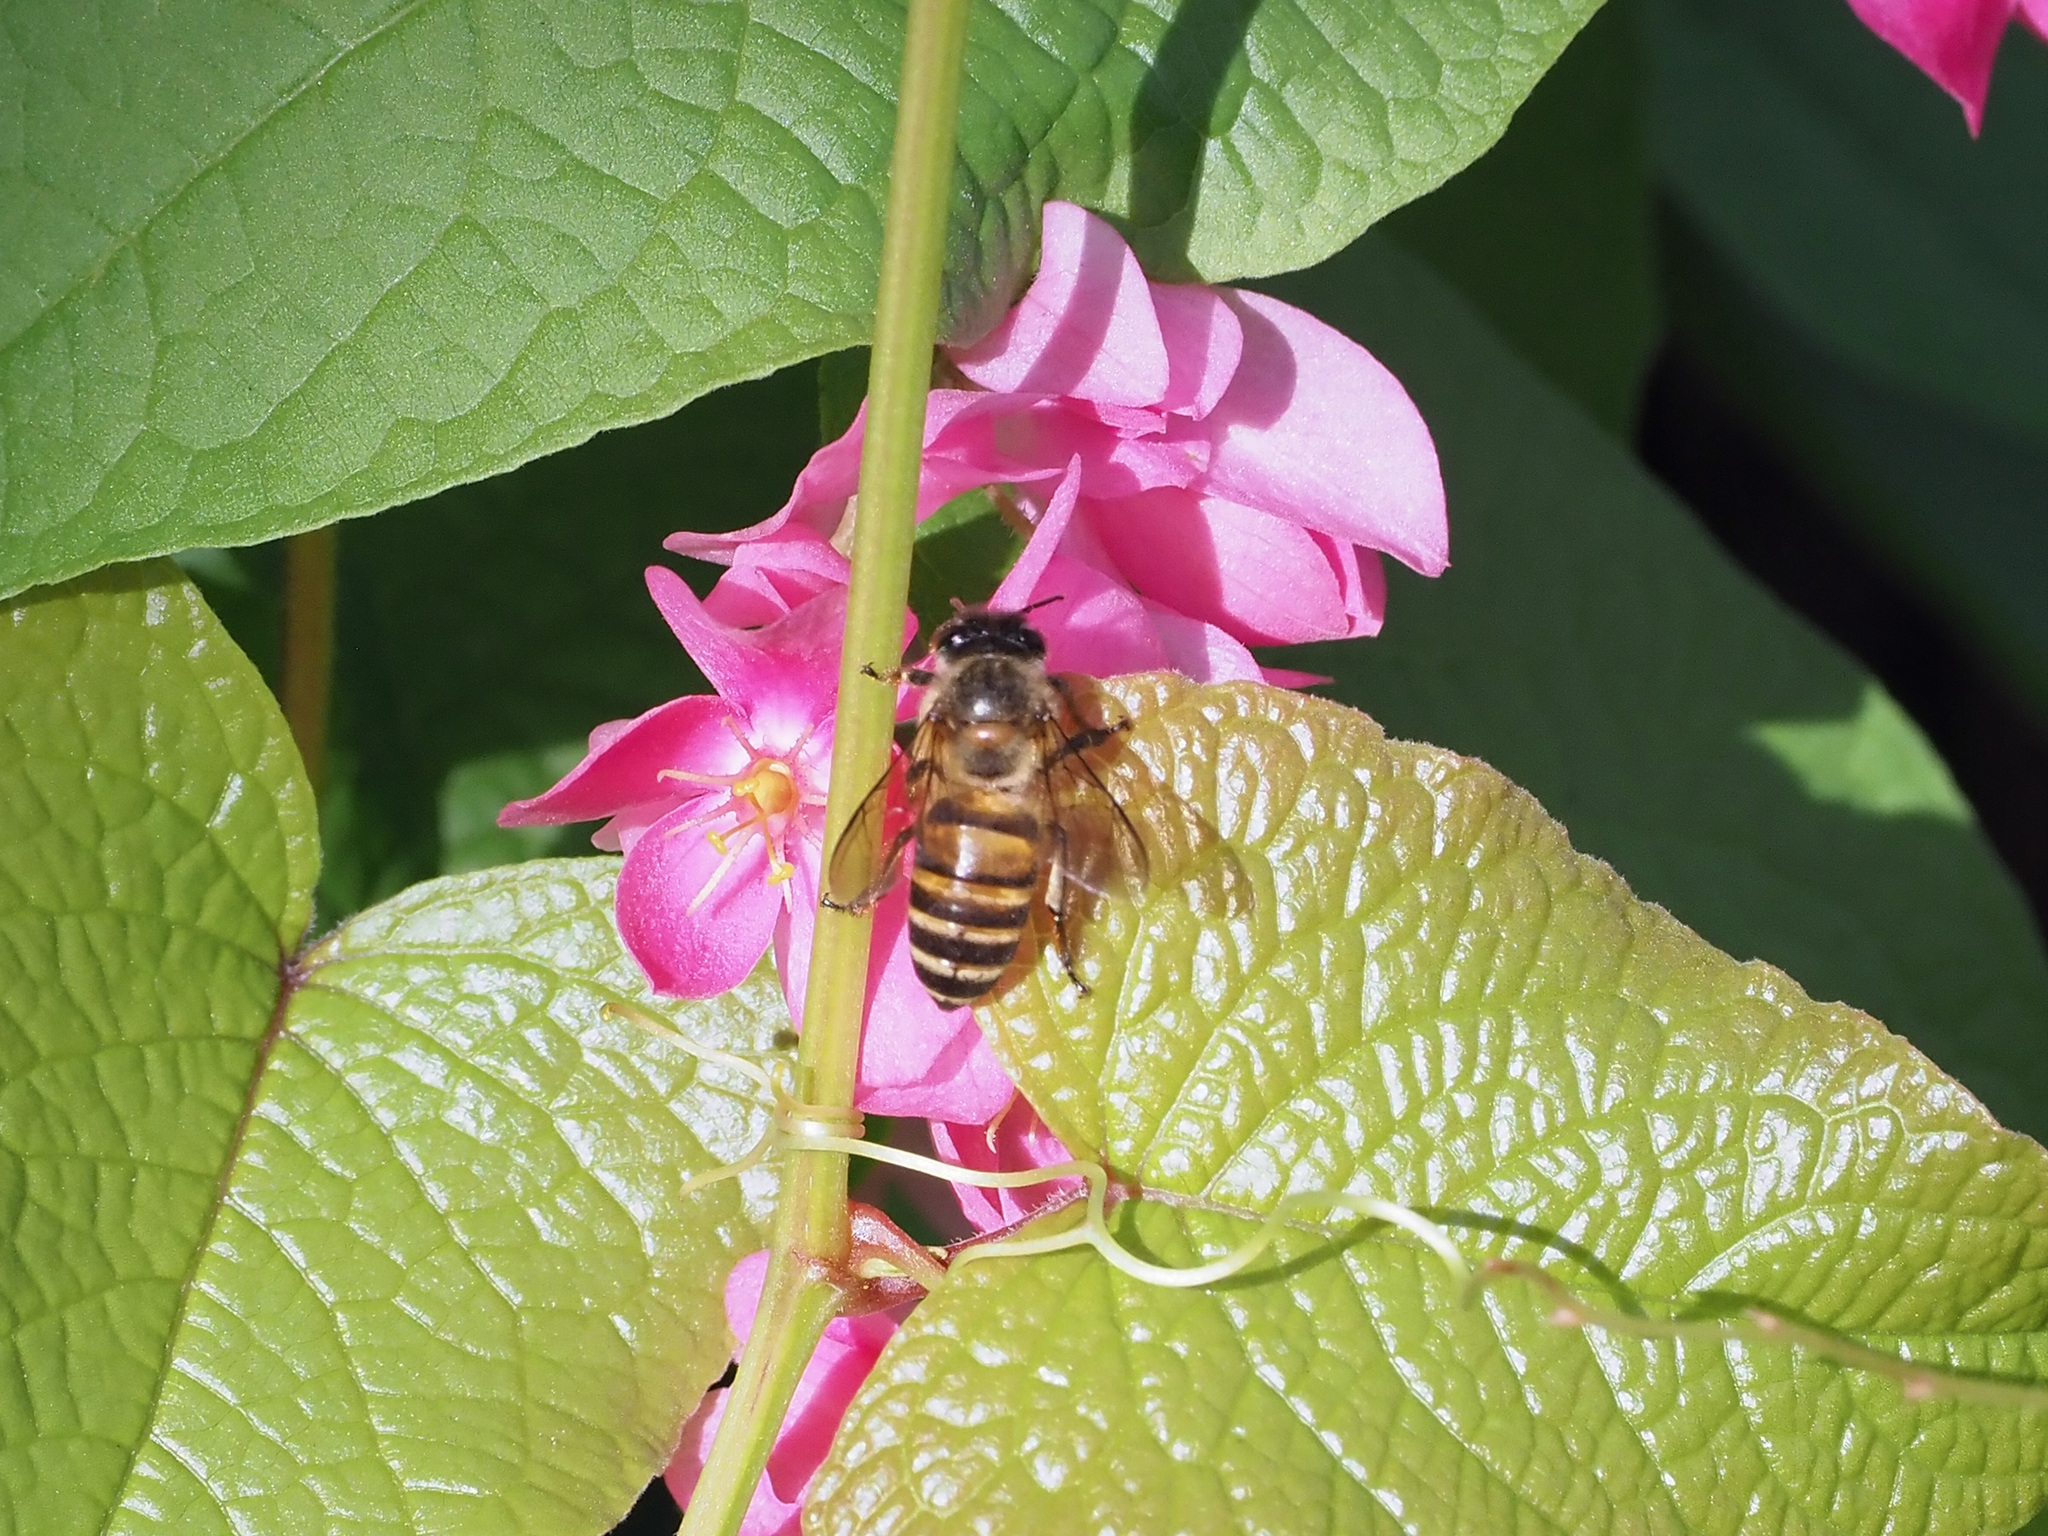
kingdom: Animalia
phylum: Arthropoda
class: Insecta
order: Hymenoptera
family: Apidae
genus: Apis
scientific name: Apis cerana
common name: Honey bee
